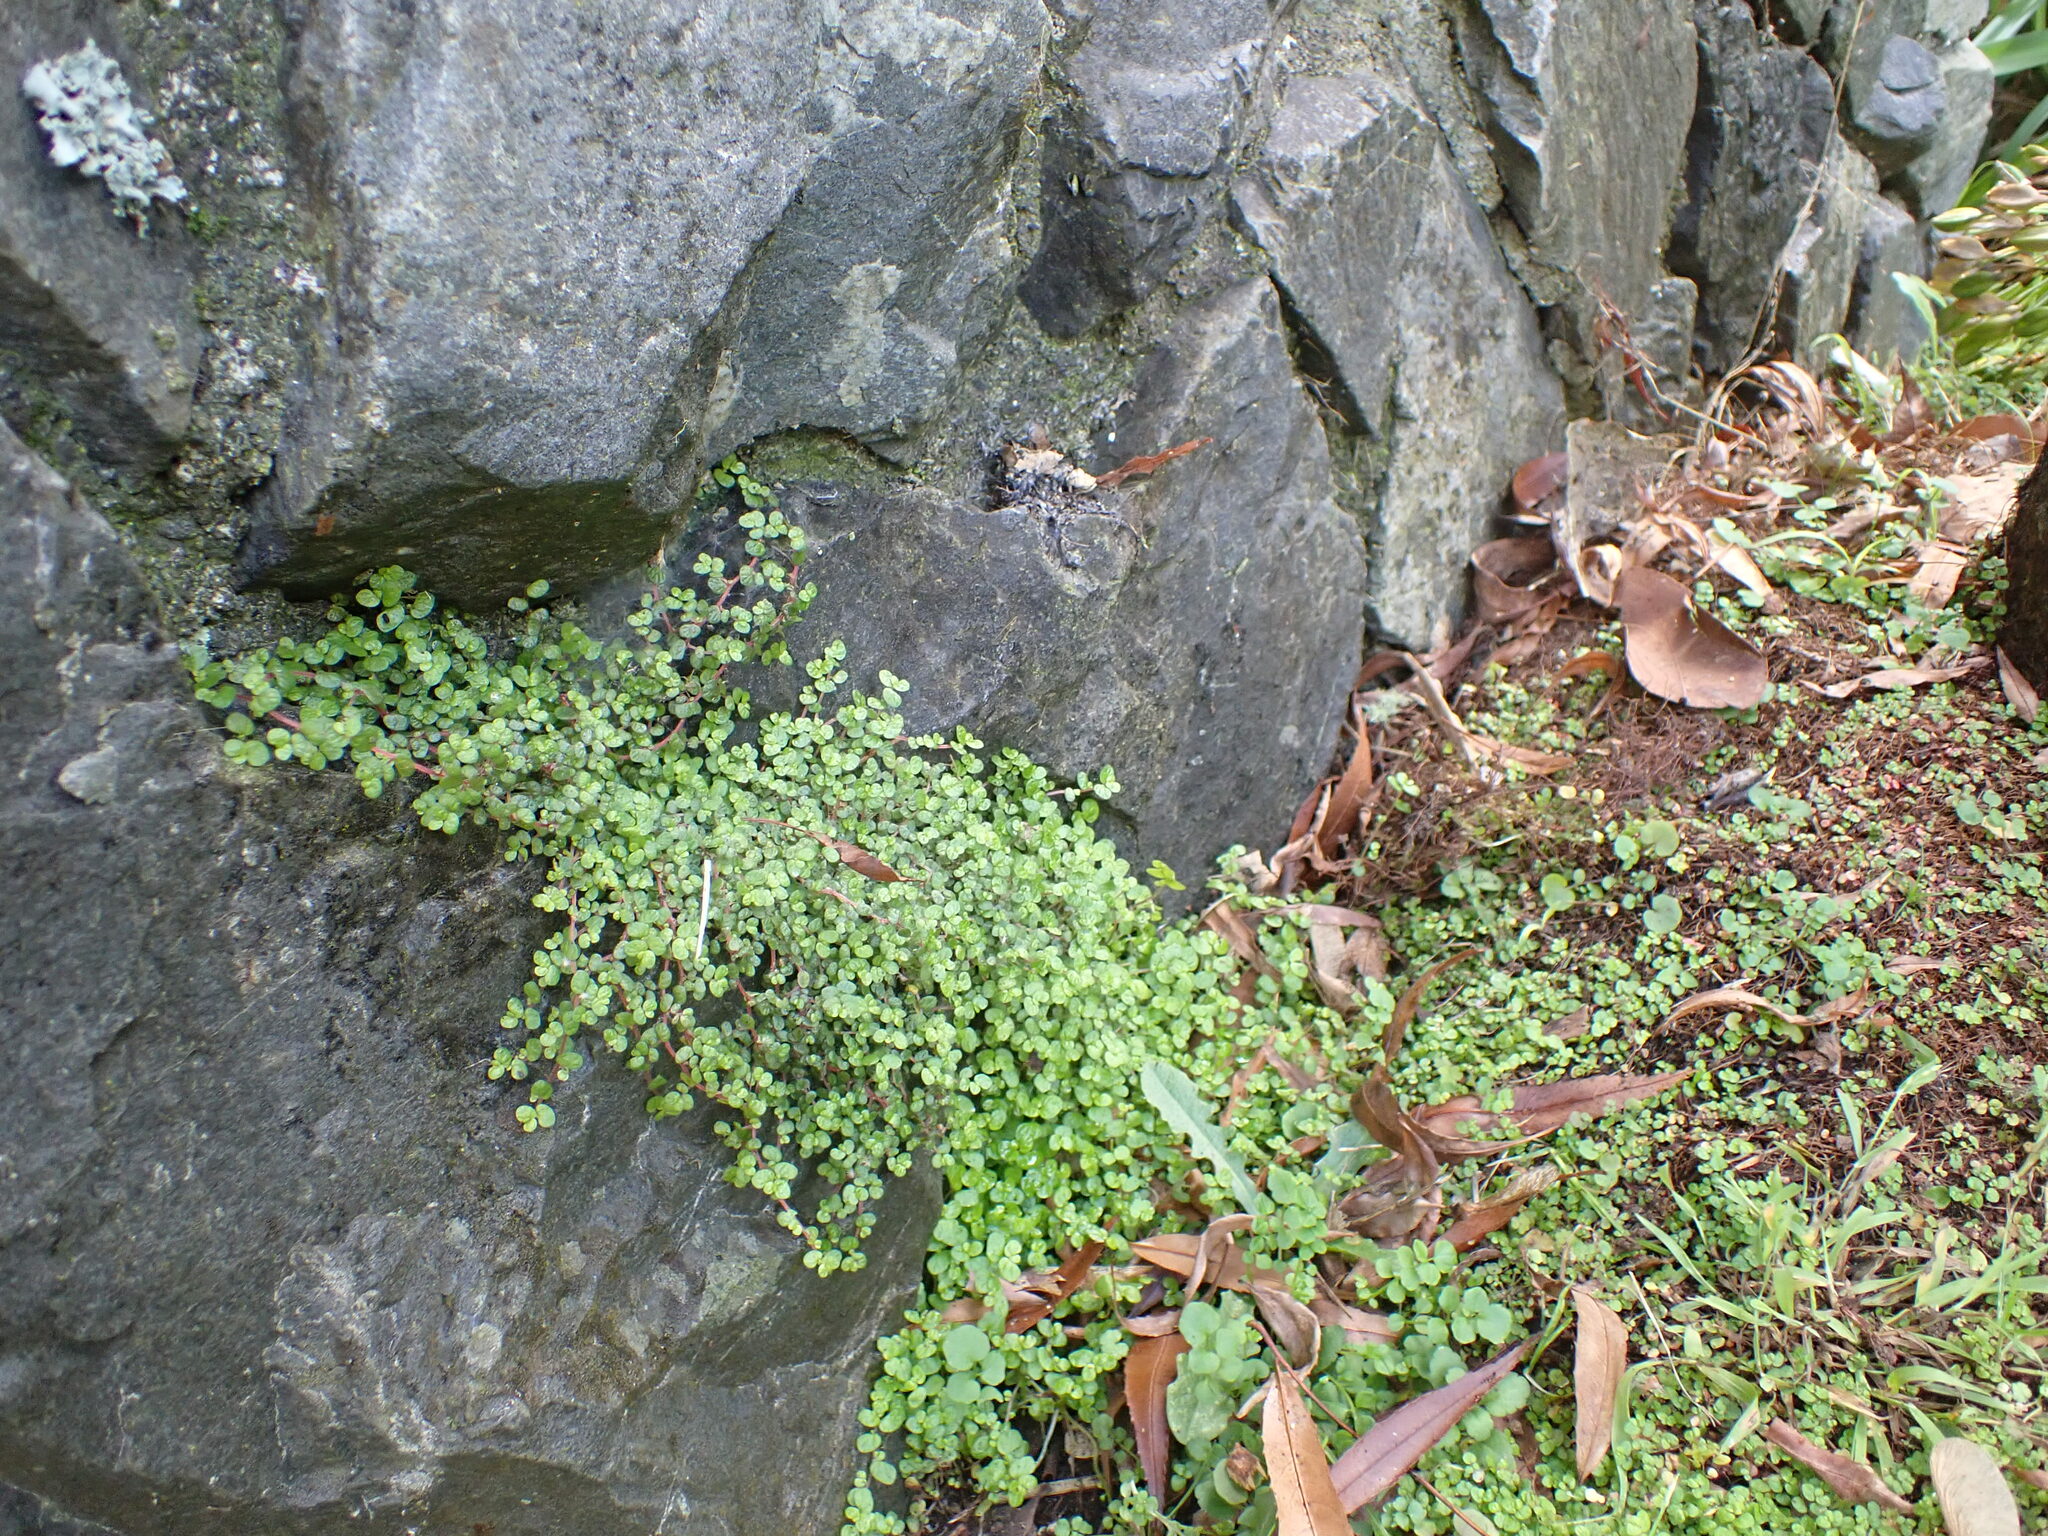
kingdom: Plantae
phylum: Tracheophyta
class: Magnoliopsida
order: Rosales
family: Urticaceae
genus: Soleirolia
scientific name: Soleirolia soleirolii
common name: Mind-your-own-business
